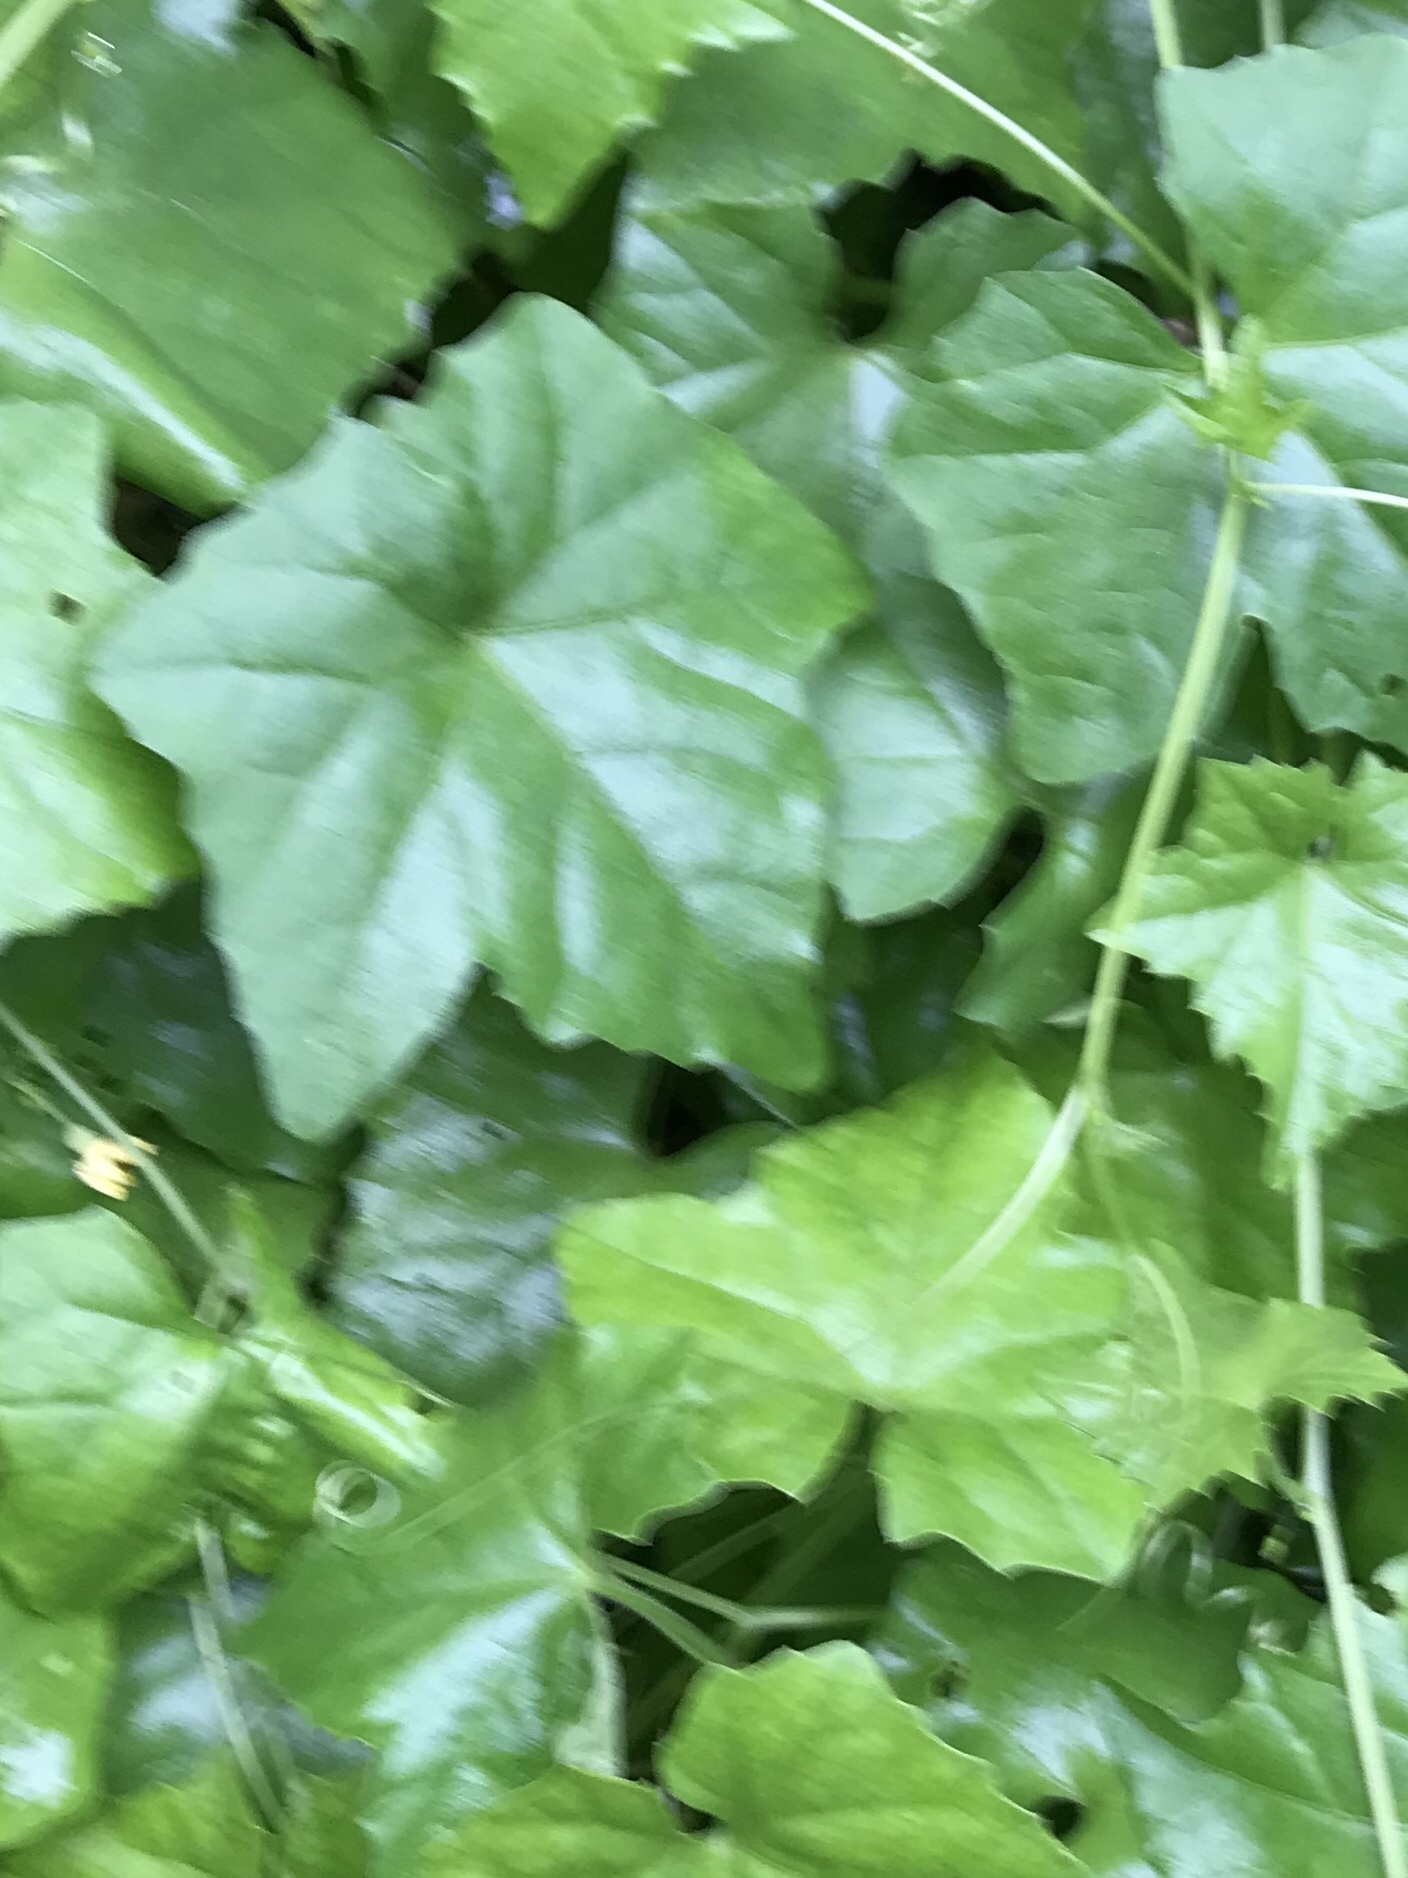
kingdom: Plantae
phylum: Tracheophyta
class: Magnoliopsida
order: Cucurbitales
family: Cucurbitaceae
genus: Melothria
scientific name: Melothria pendula
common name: Creeping-cucumber
